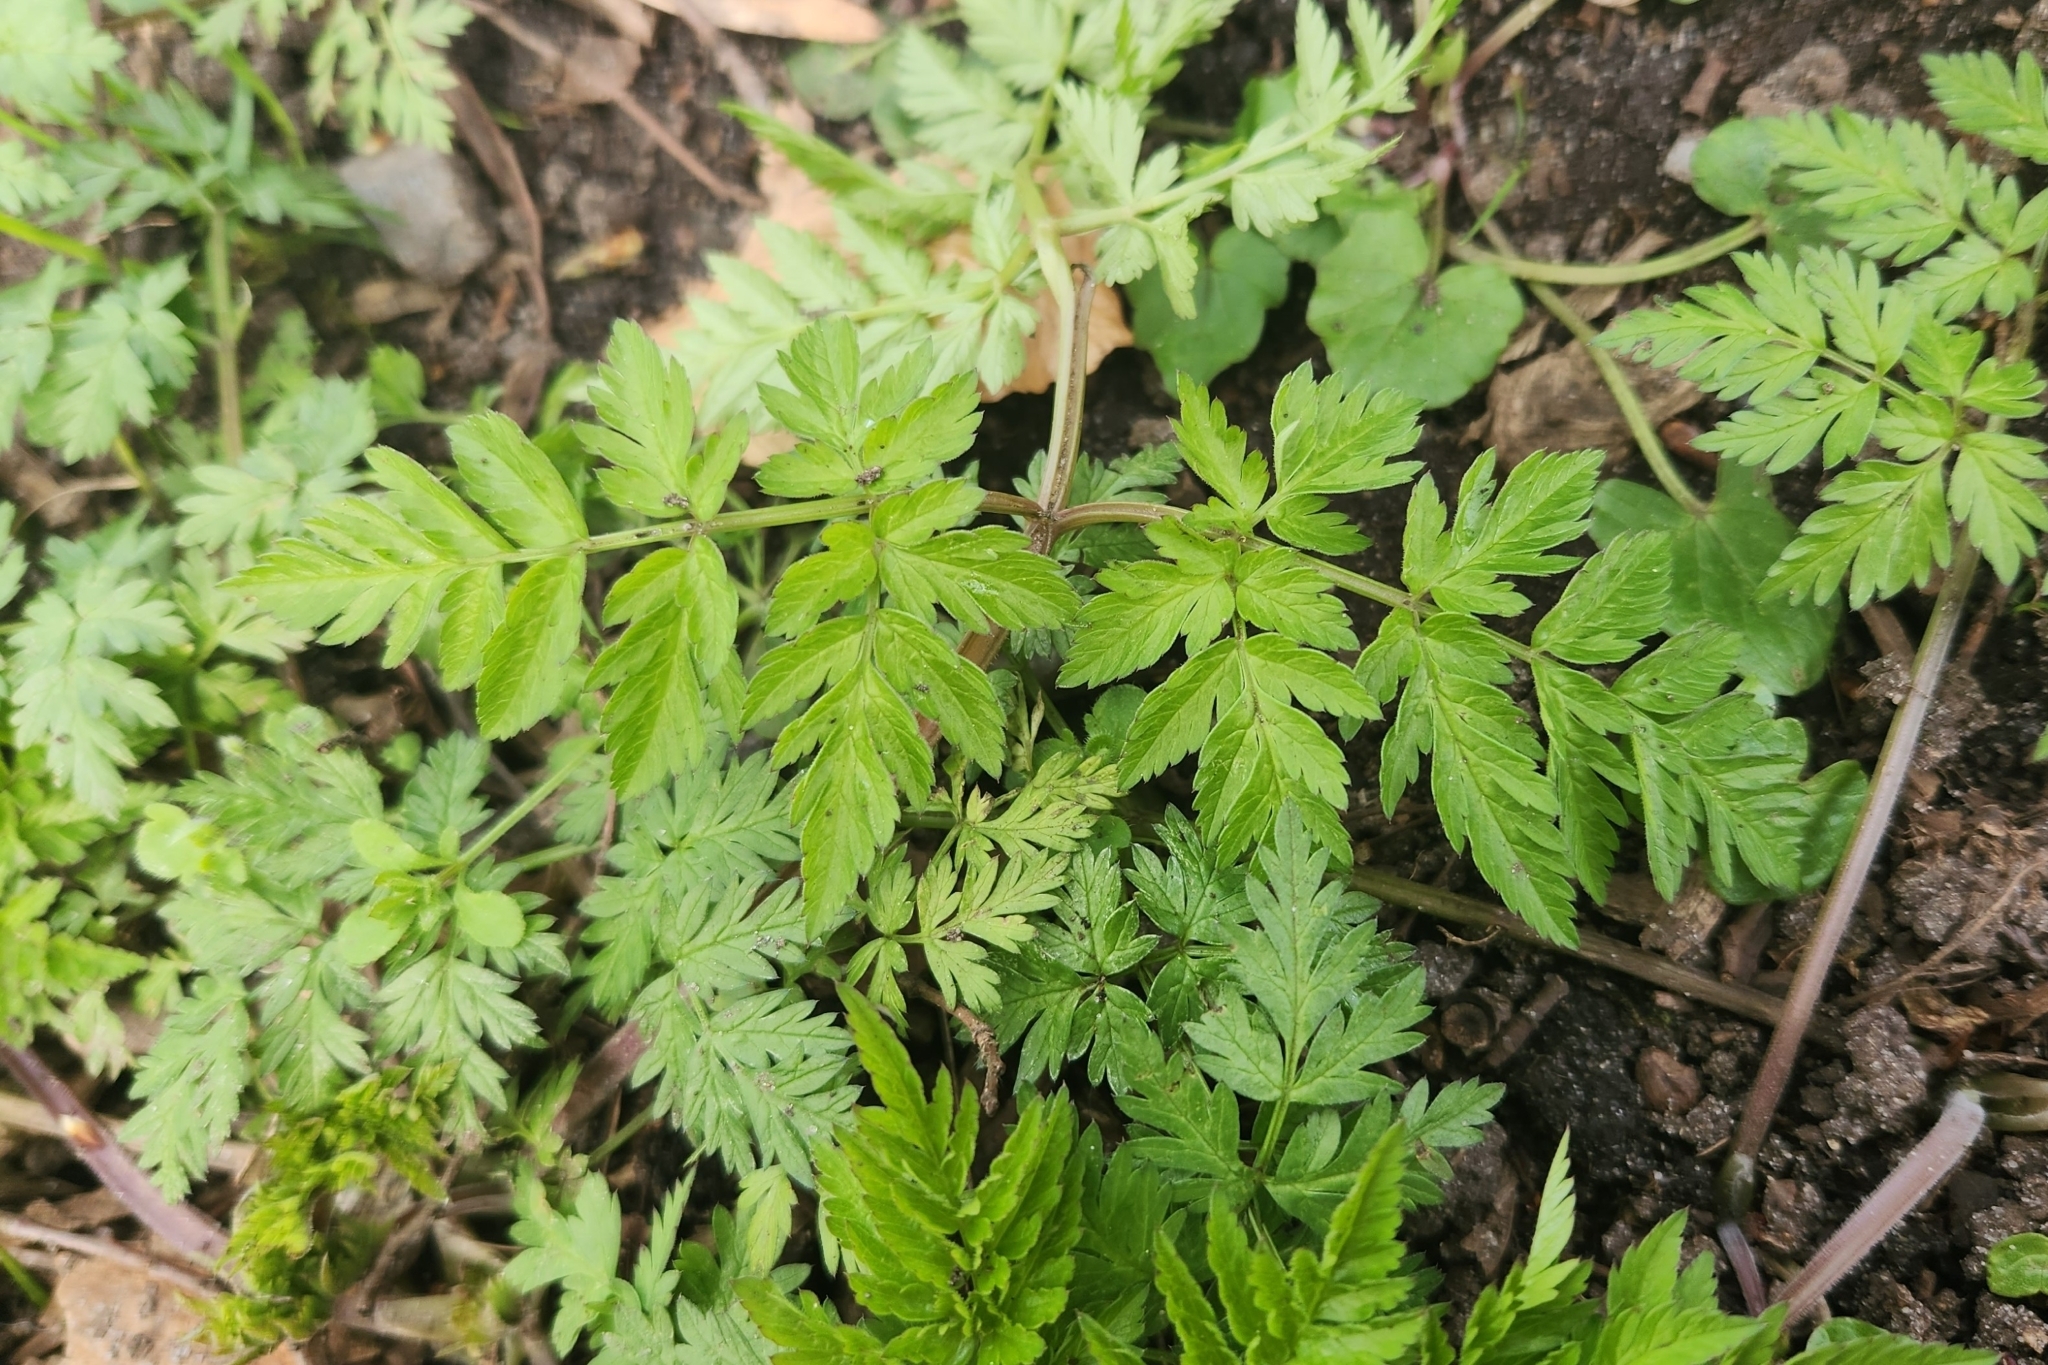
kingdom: Plantae
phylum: Tracheophyta
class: Magnoliopsida
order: Apiales
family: Apiaceae
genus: Anthriscus
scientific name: Anthriscus sylvestris
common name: Cow parsley
